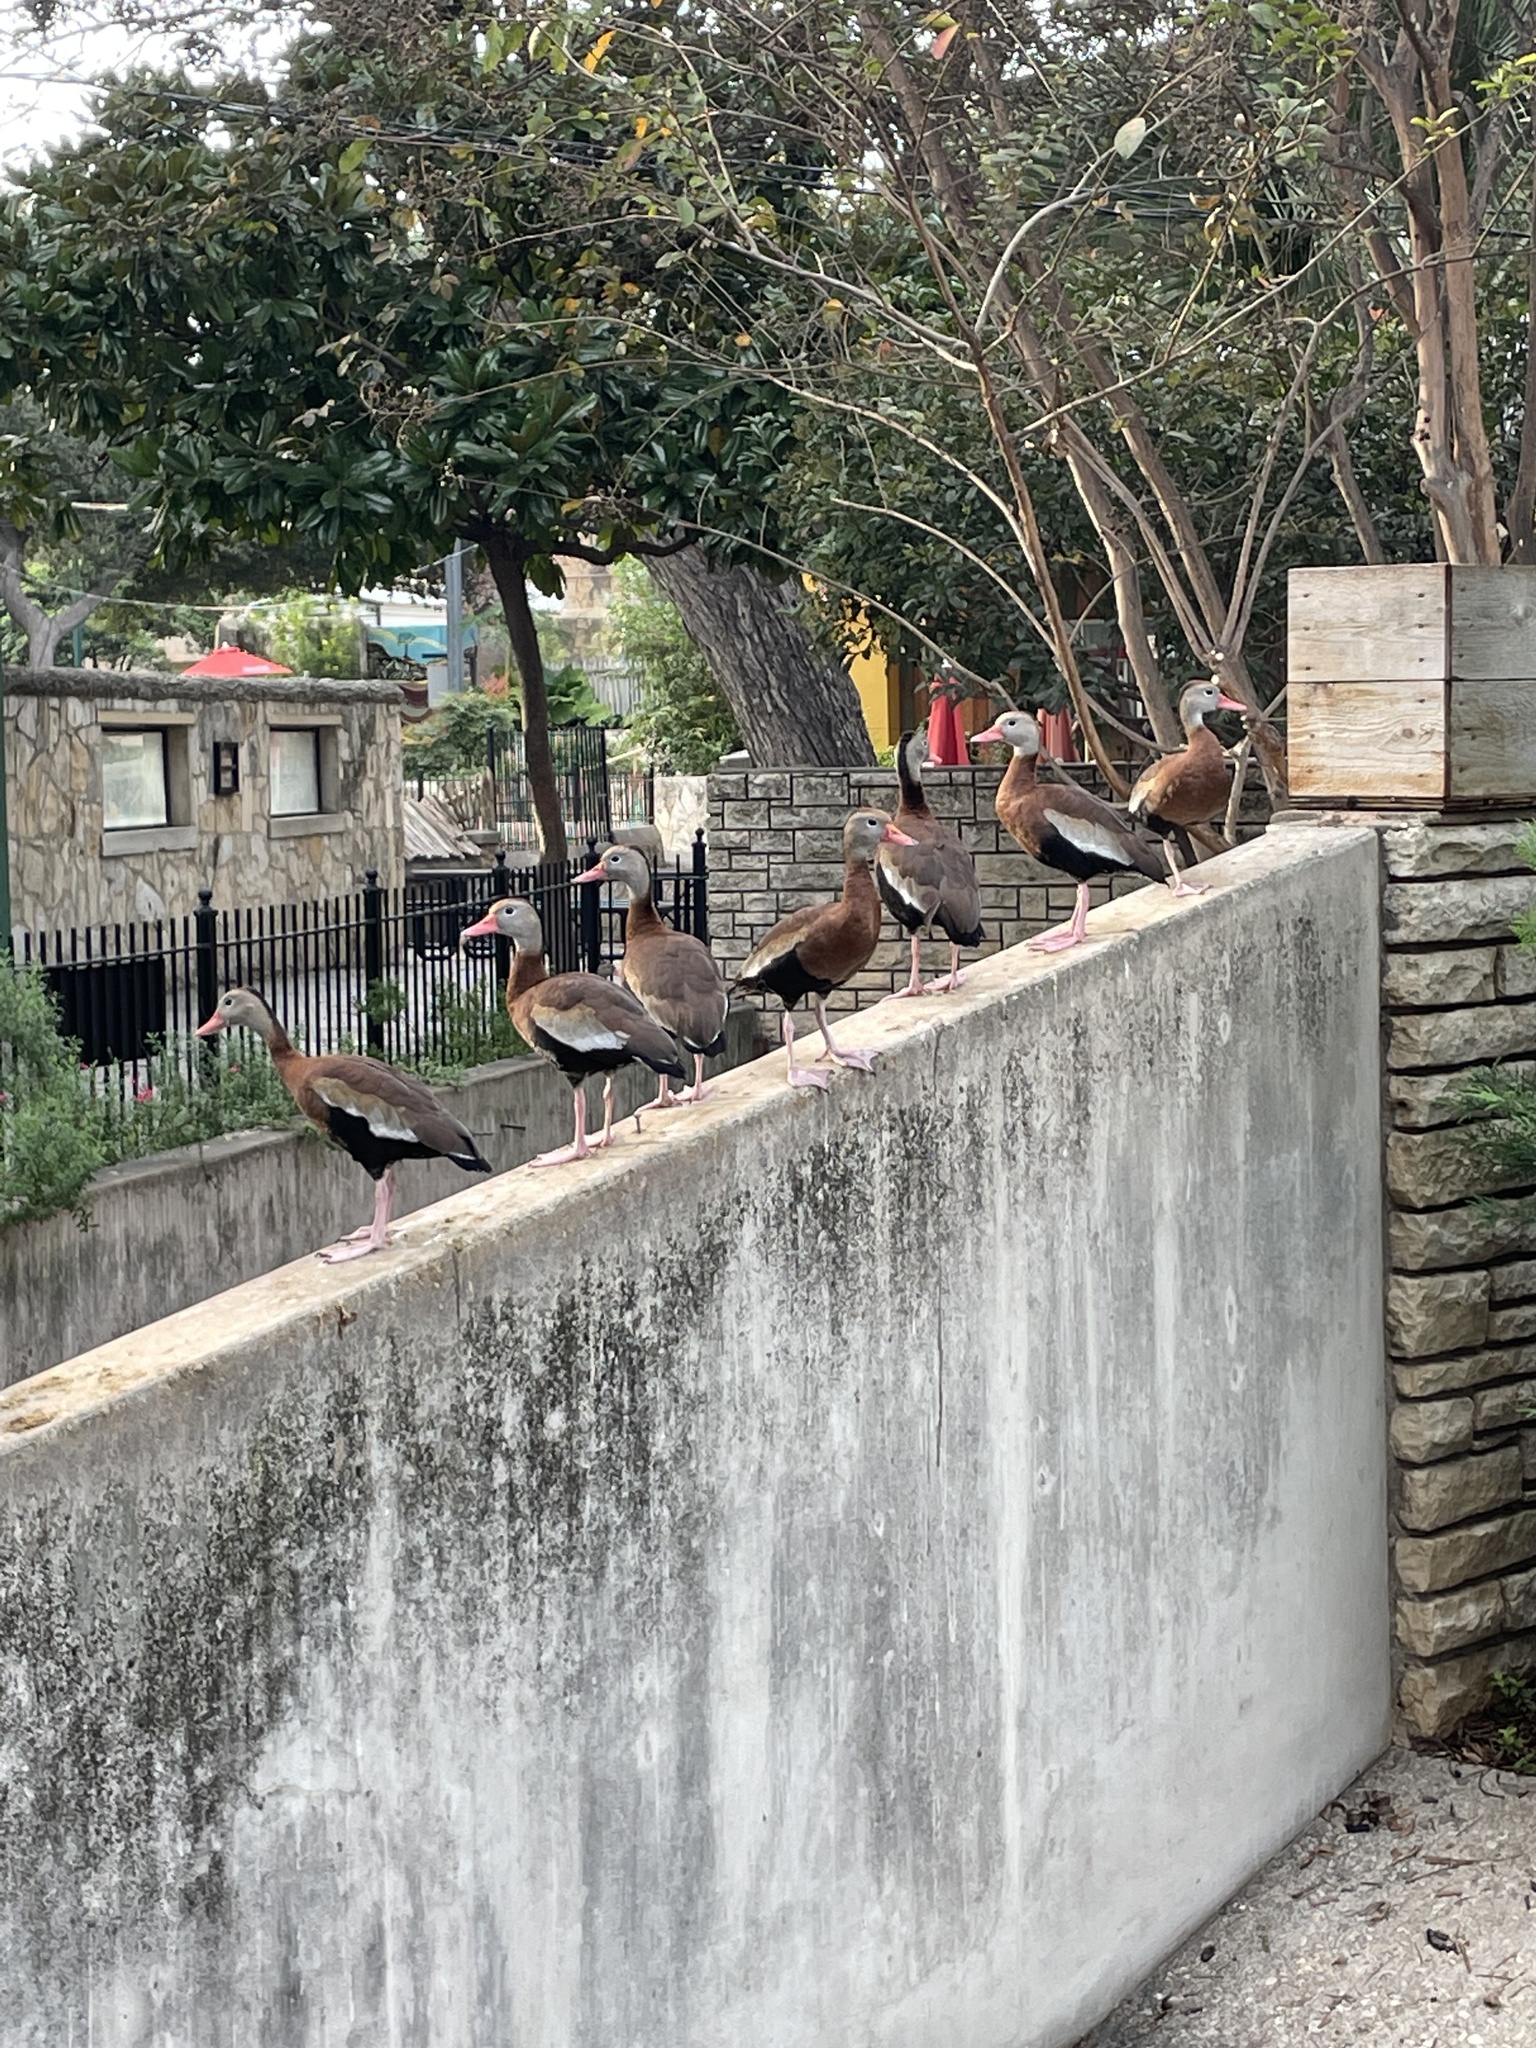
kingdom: Animalia
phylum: Chordata
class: Aves
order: Anseriformes
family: Anatidae
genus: Dendrocygna
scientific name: Dendrocygna autumnalis
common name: Black-bellied whistling duck
